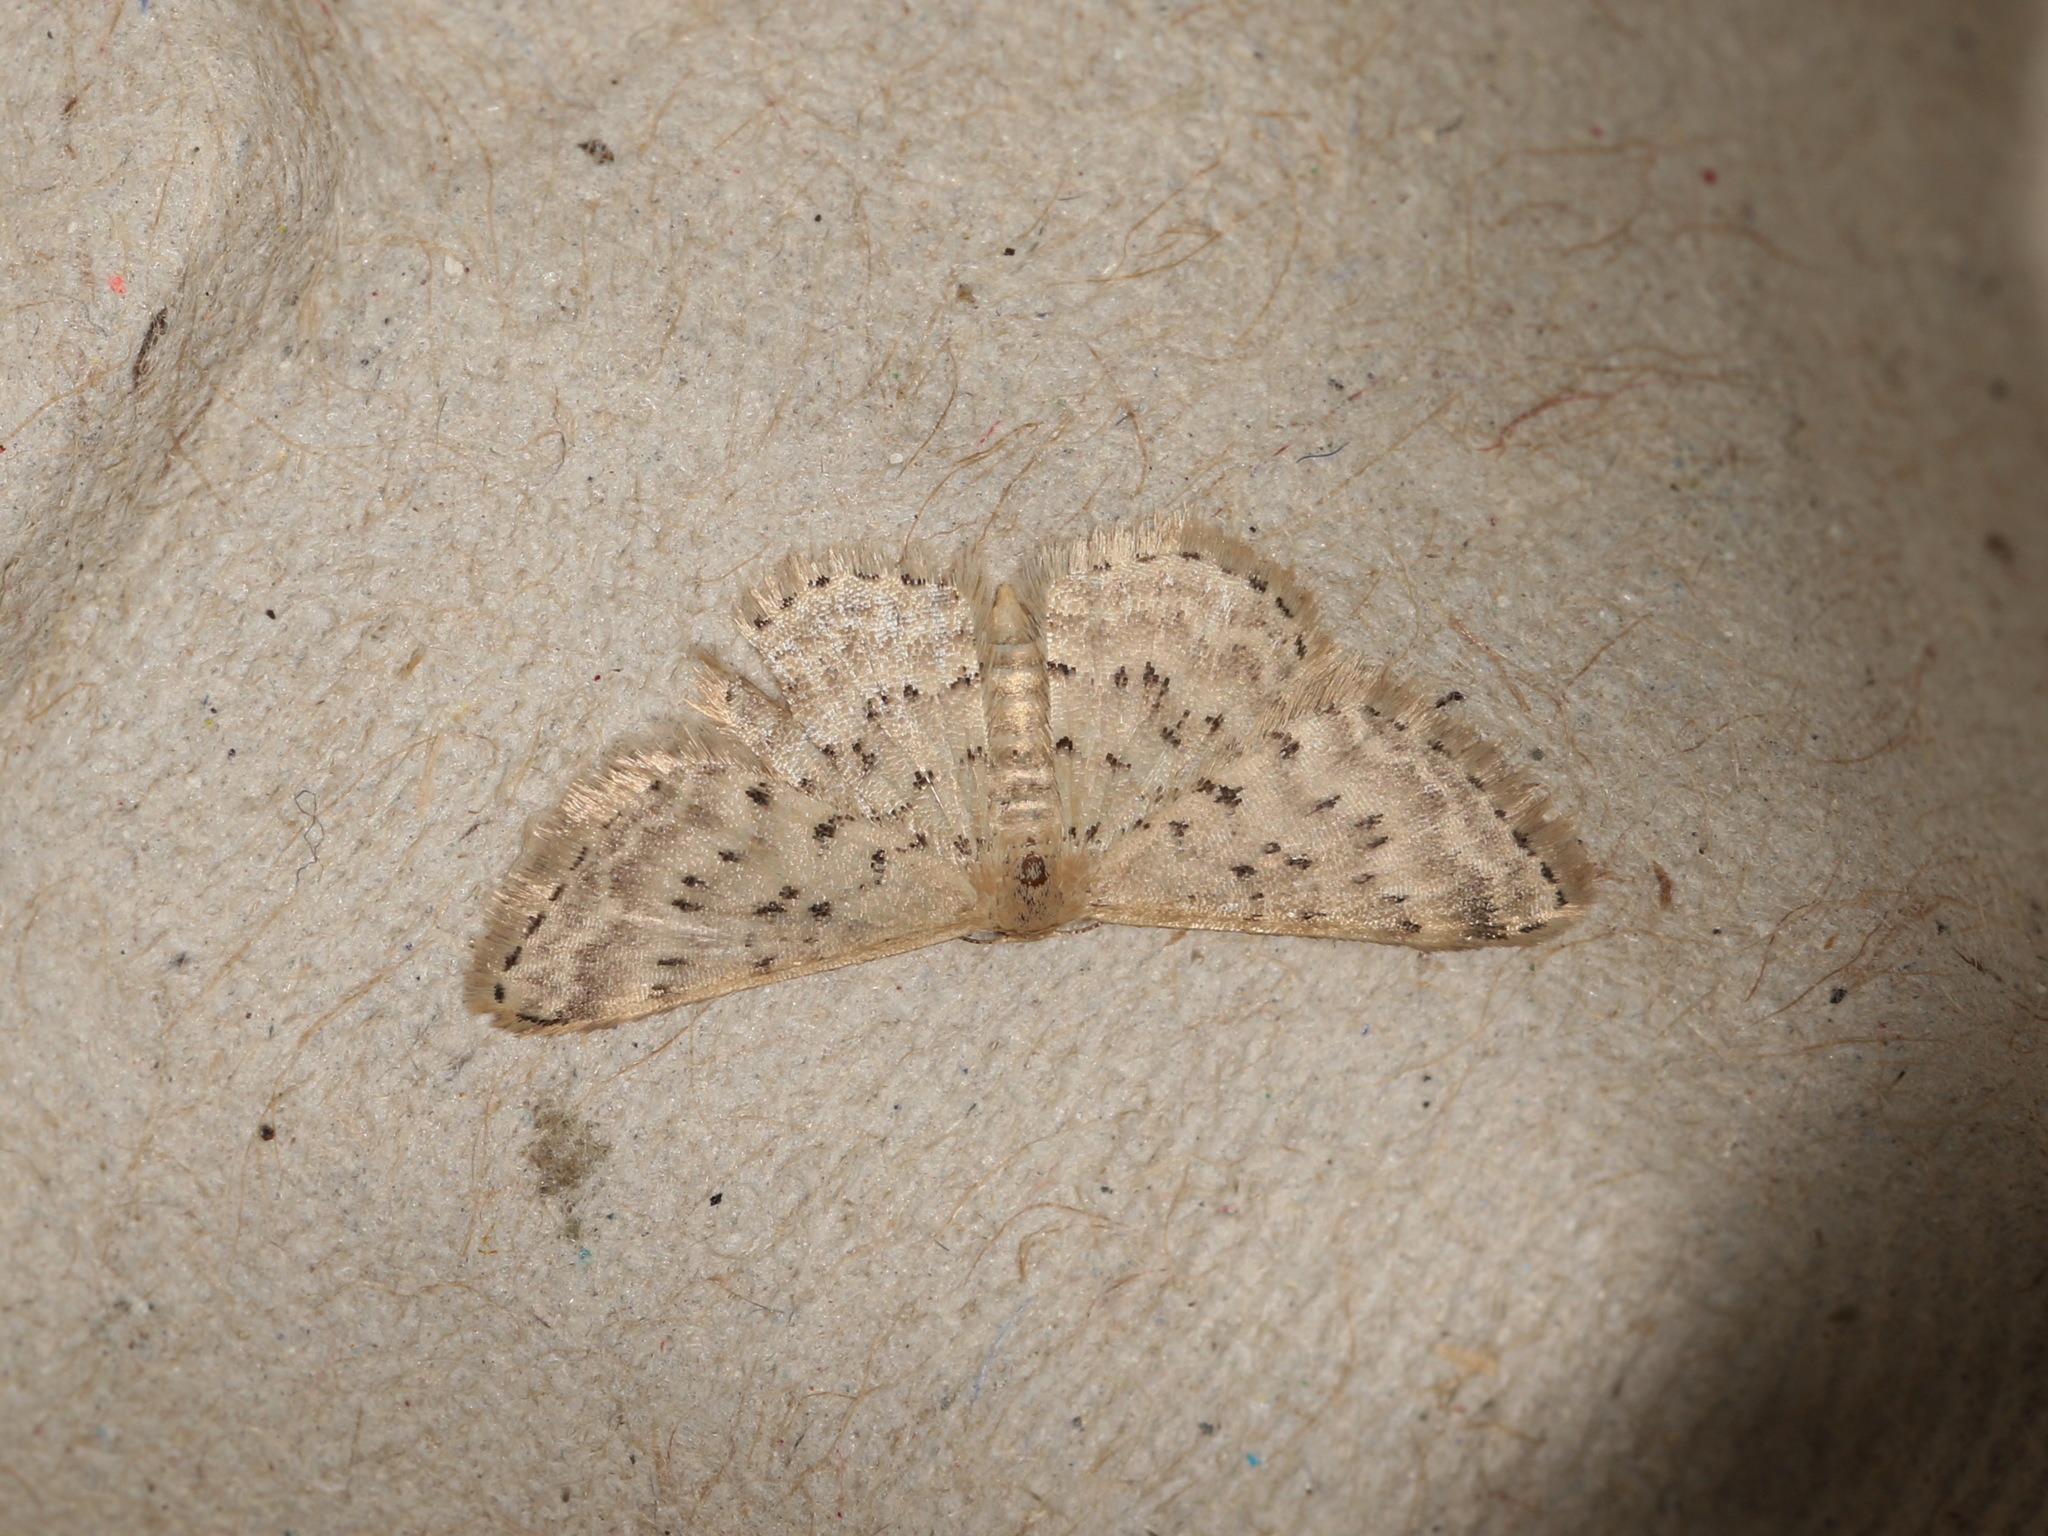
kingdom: Animalia
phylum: Arthropoda
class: Insecta
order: Lepidoptera
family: Geometridae
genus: Idaea
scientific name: Idaea philocosma
